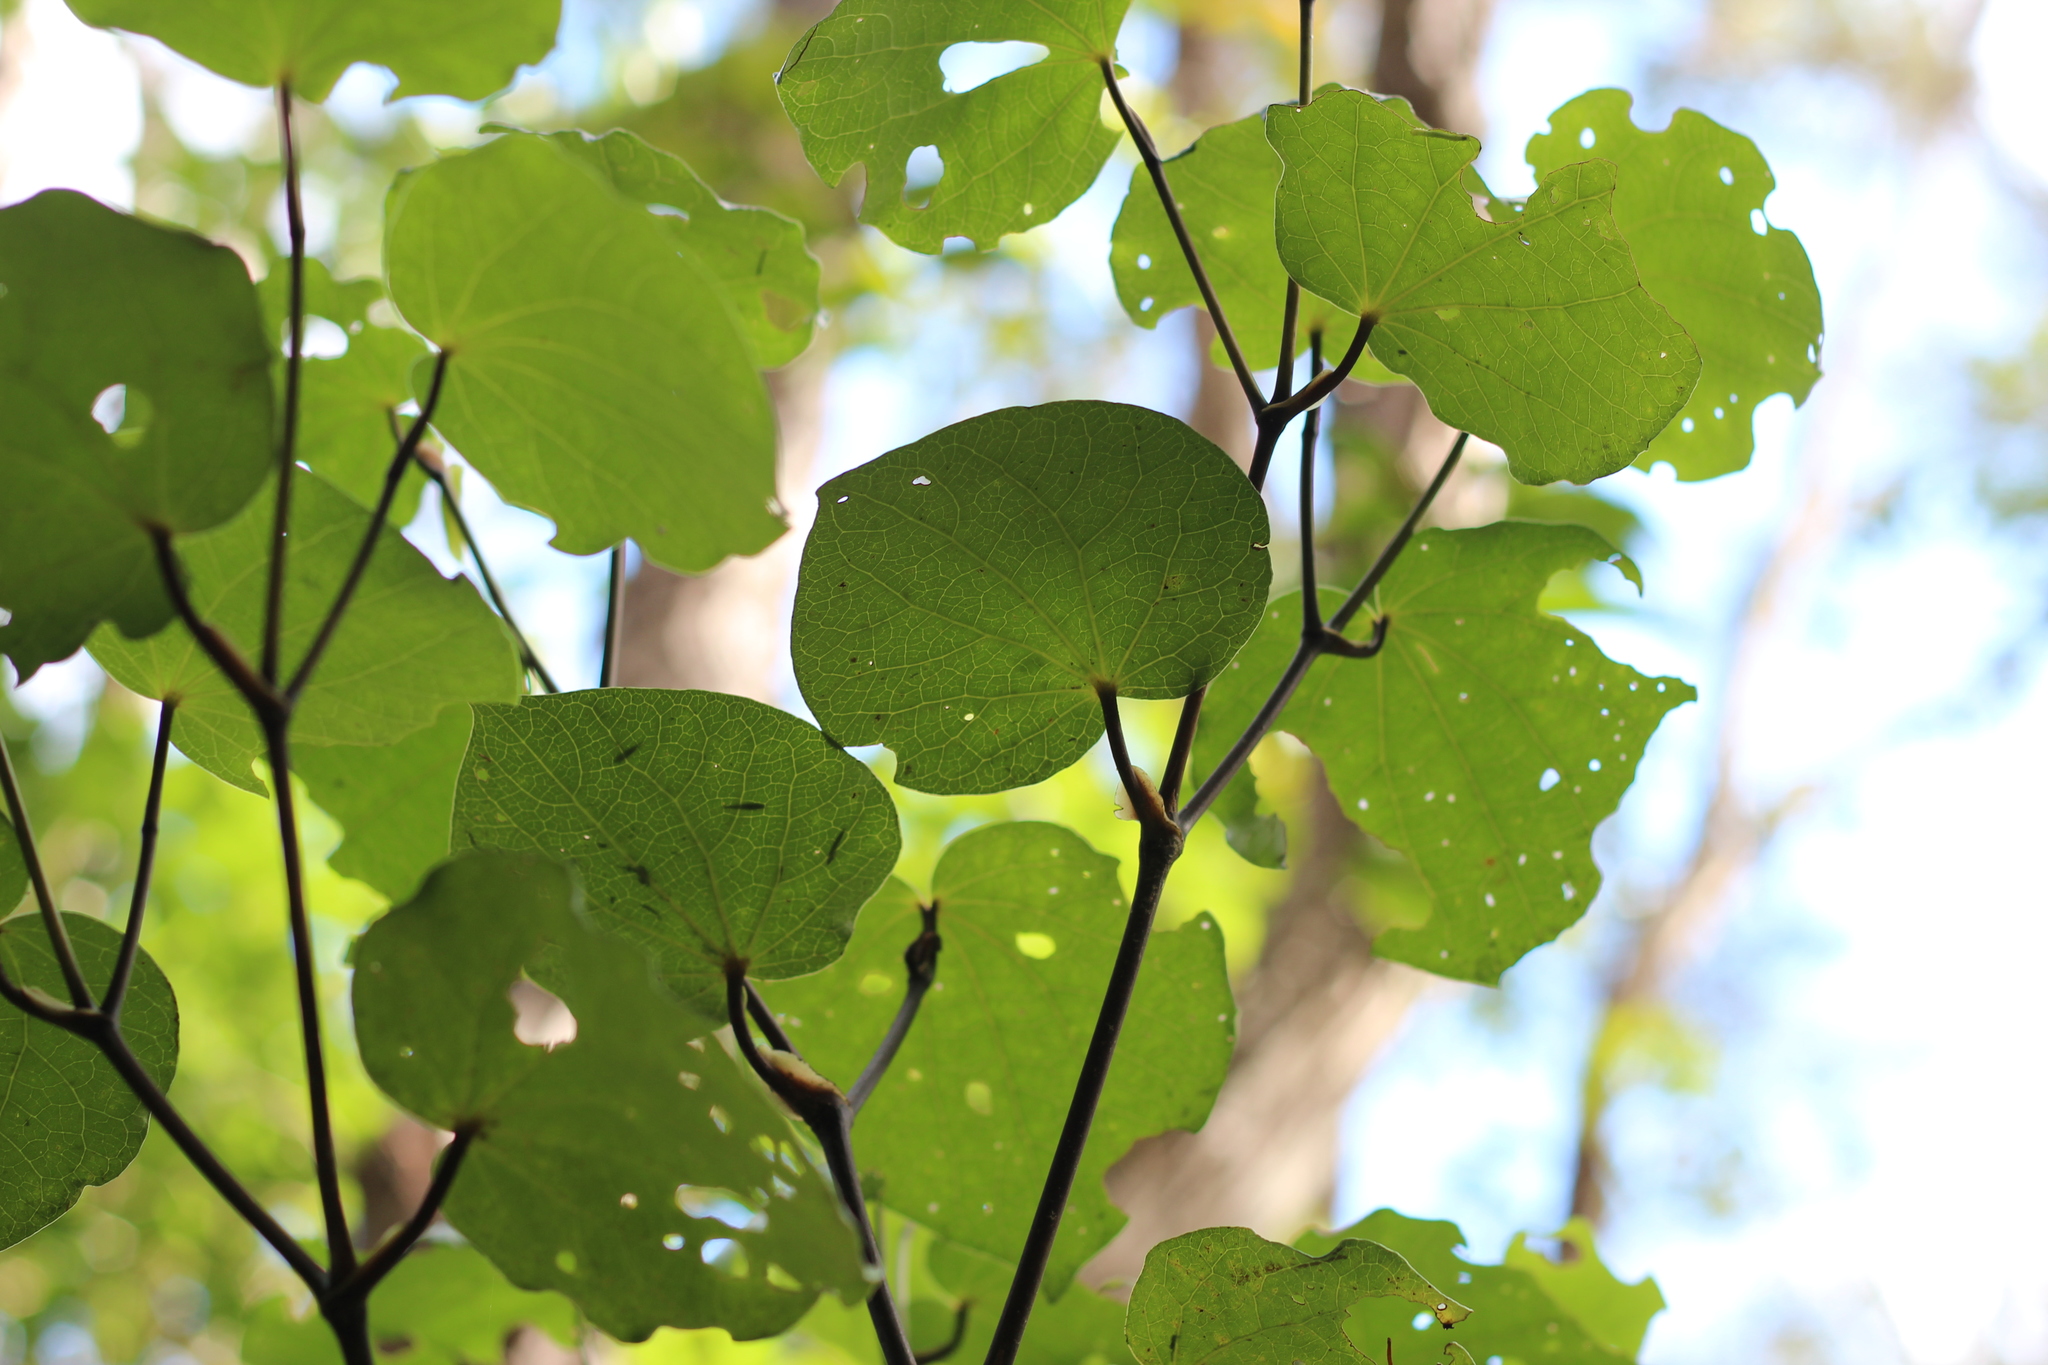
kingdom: Plantae
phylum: Tracheophyta
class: Magnoliopsida
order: Piperales
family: Piperaceae
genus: Macropiper
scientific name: Macropiper excelsum
